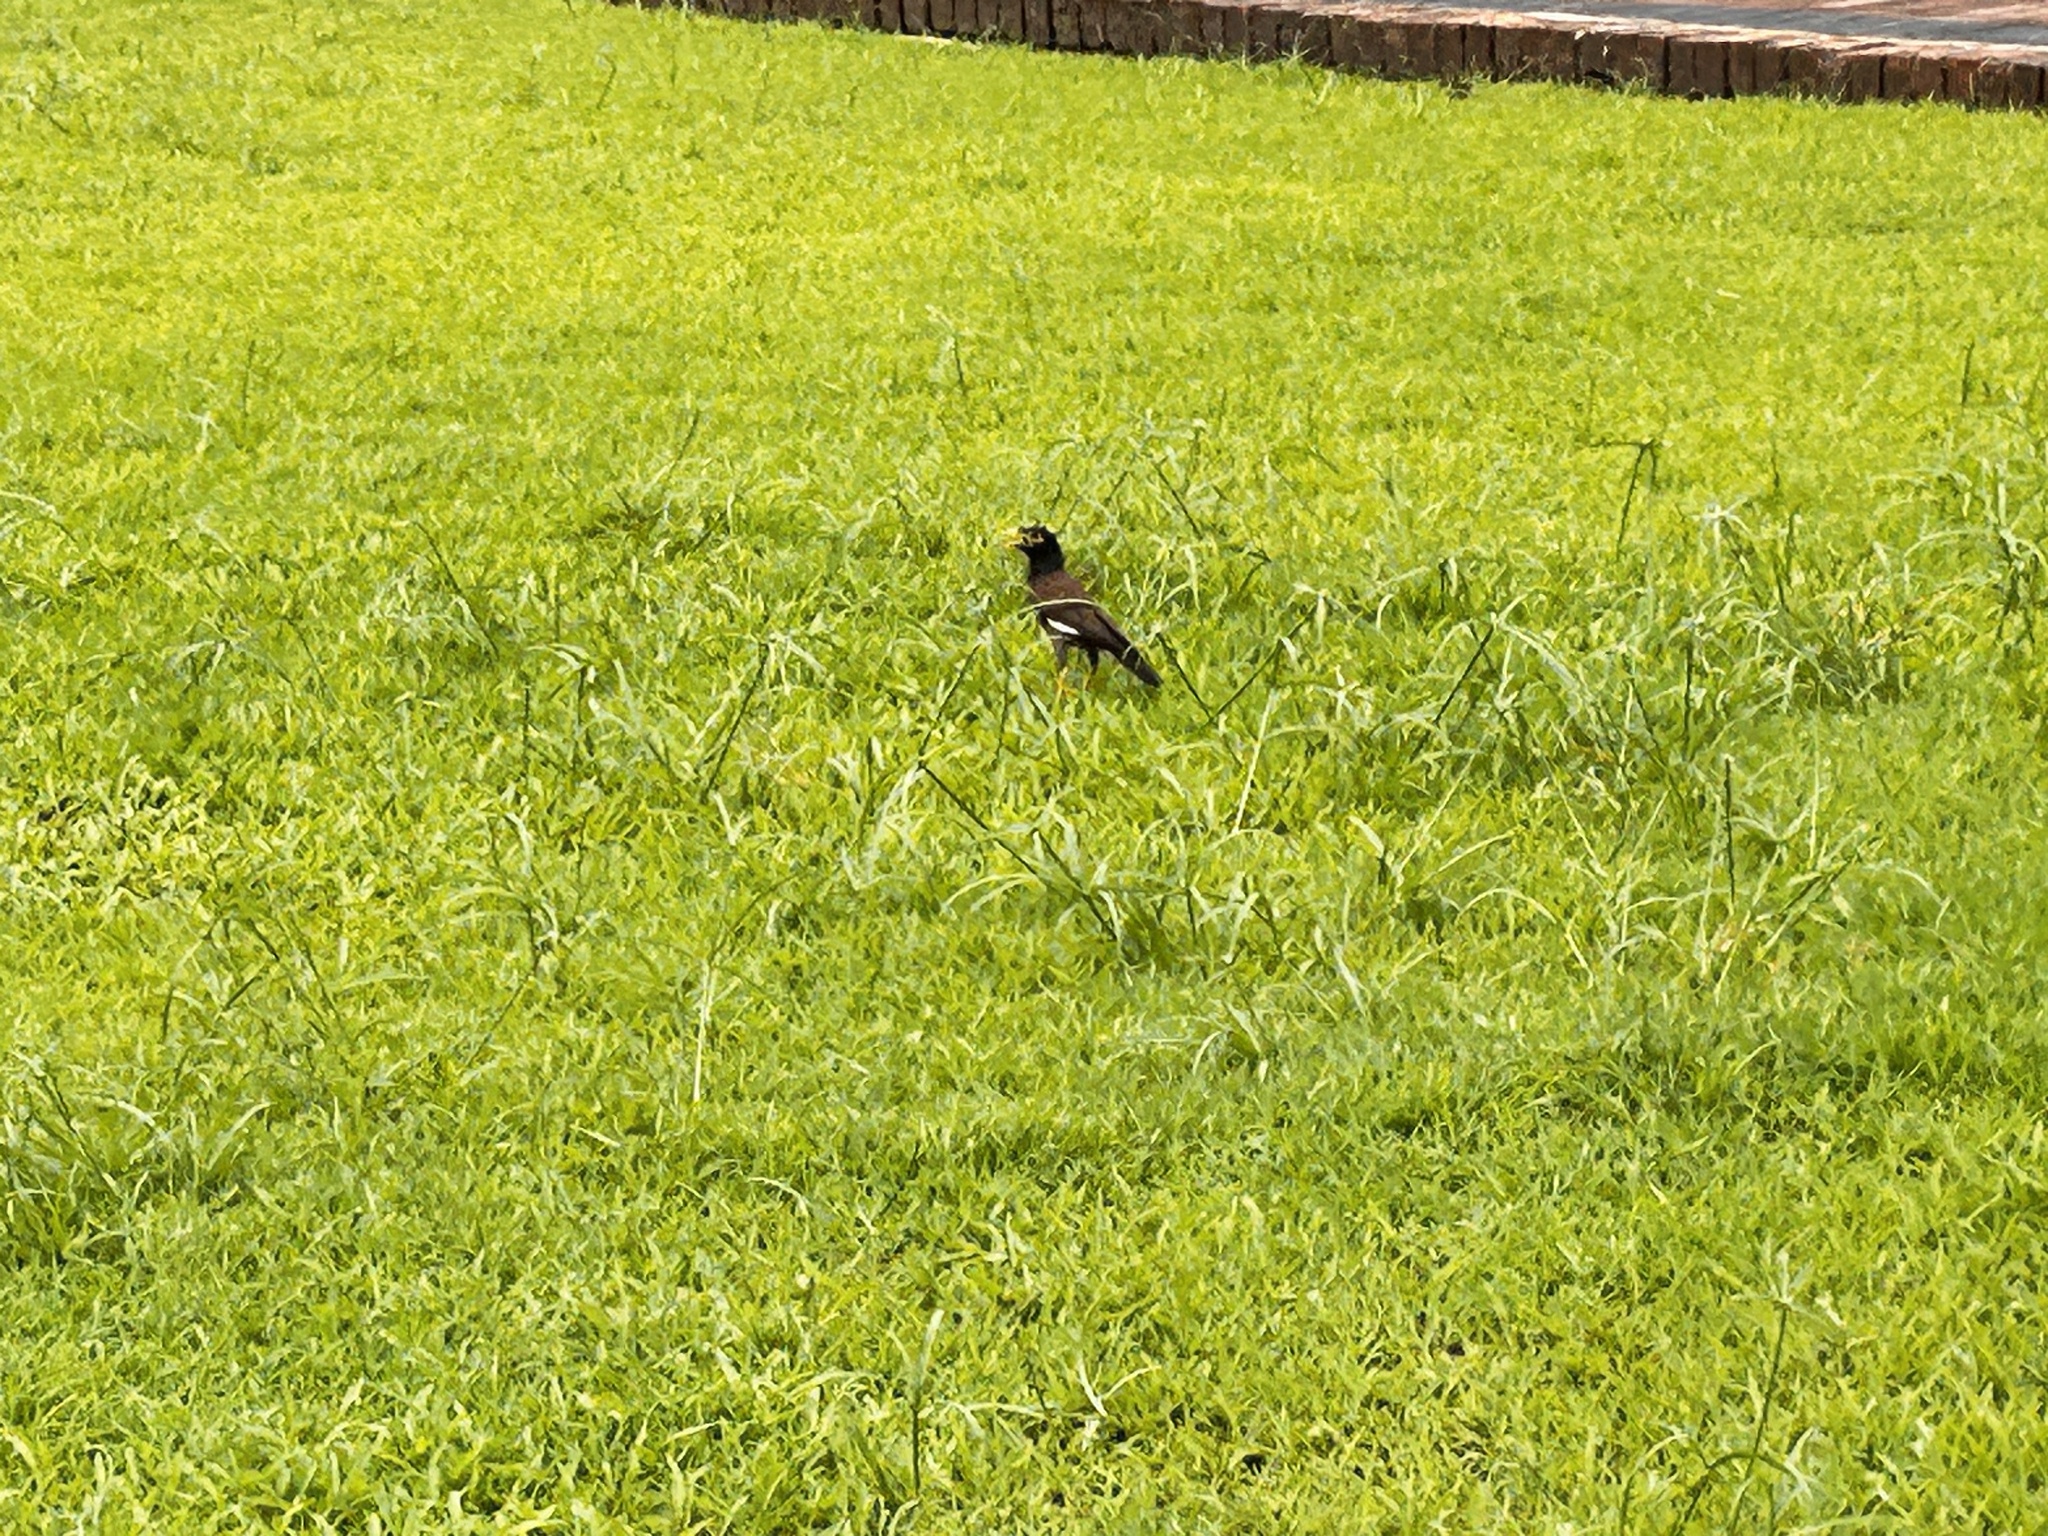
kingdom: Animalia
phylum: Chordata
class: Aves
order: Passeriformes
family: Sturnidae
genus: Acridotheres
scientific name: Acridotheres tristis
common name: Common myna
